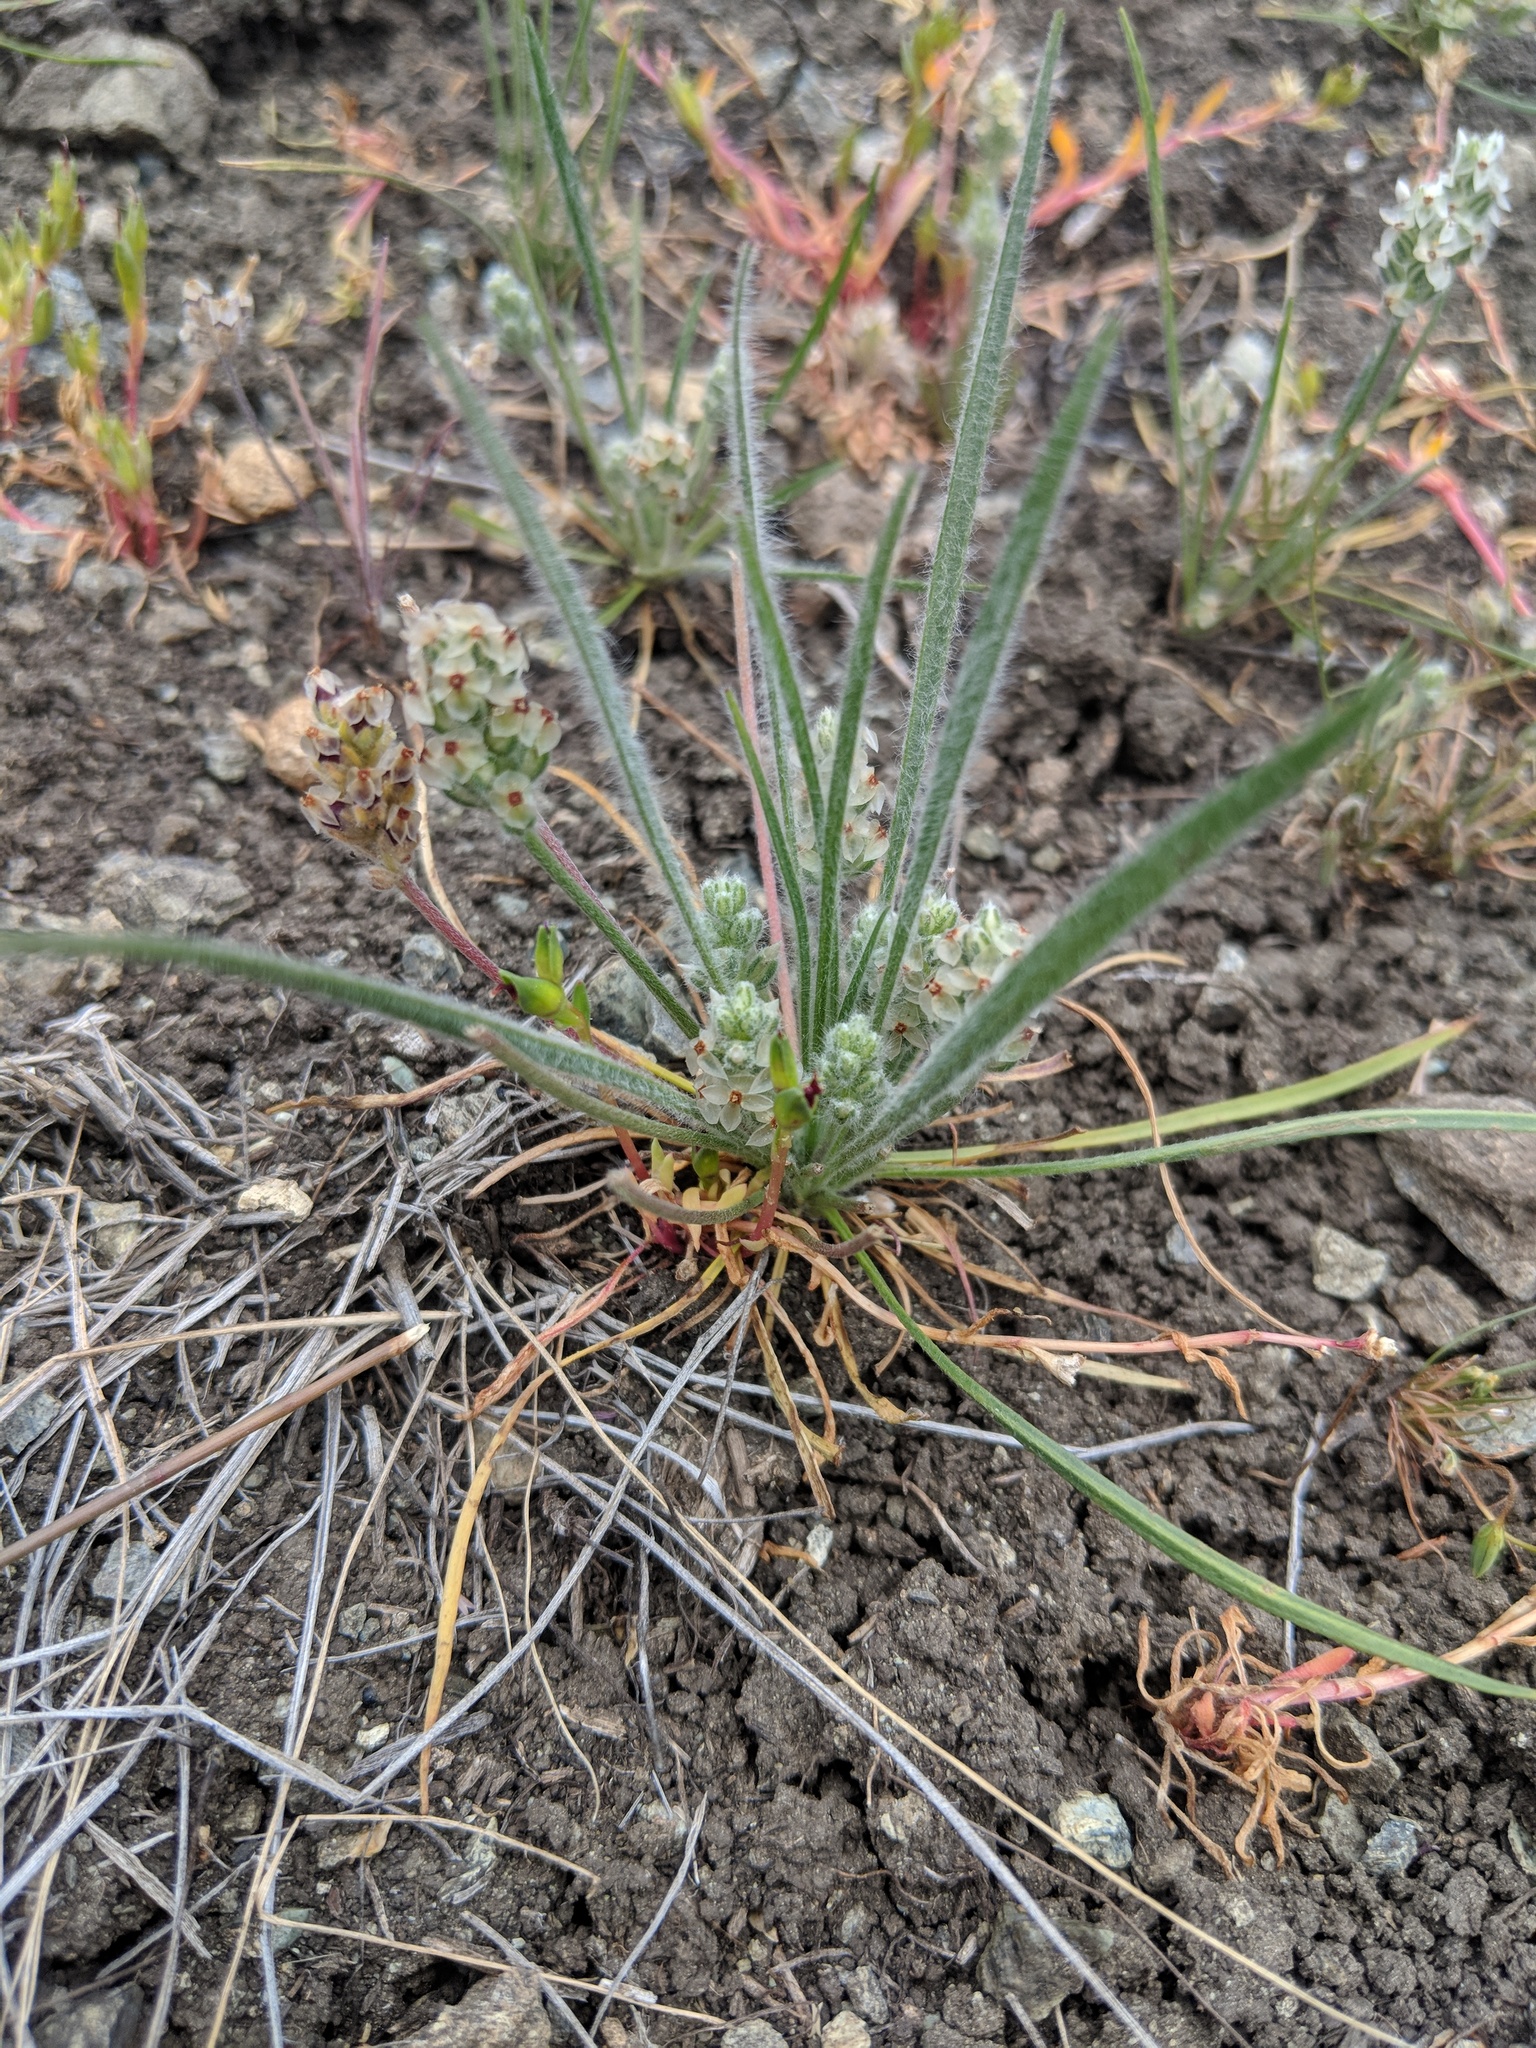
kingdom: Plantae
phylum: Tracheophyta
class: Magnoliopsida
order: Lamiales
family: Plantaginaceae
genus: Plantago
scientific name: Plantago erecta
